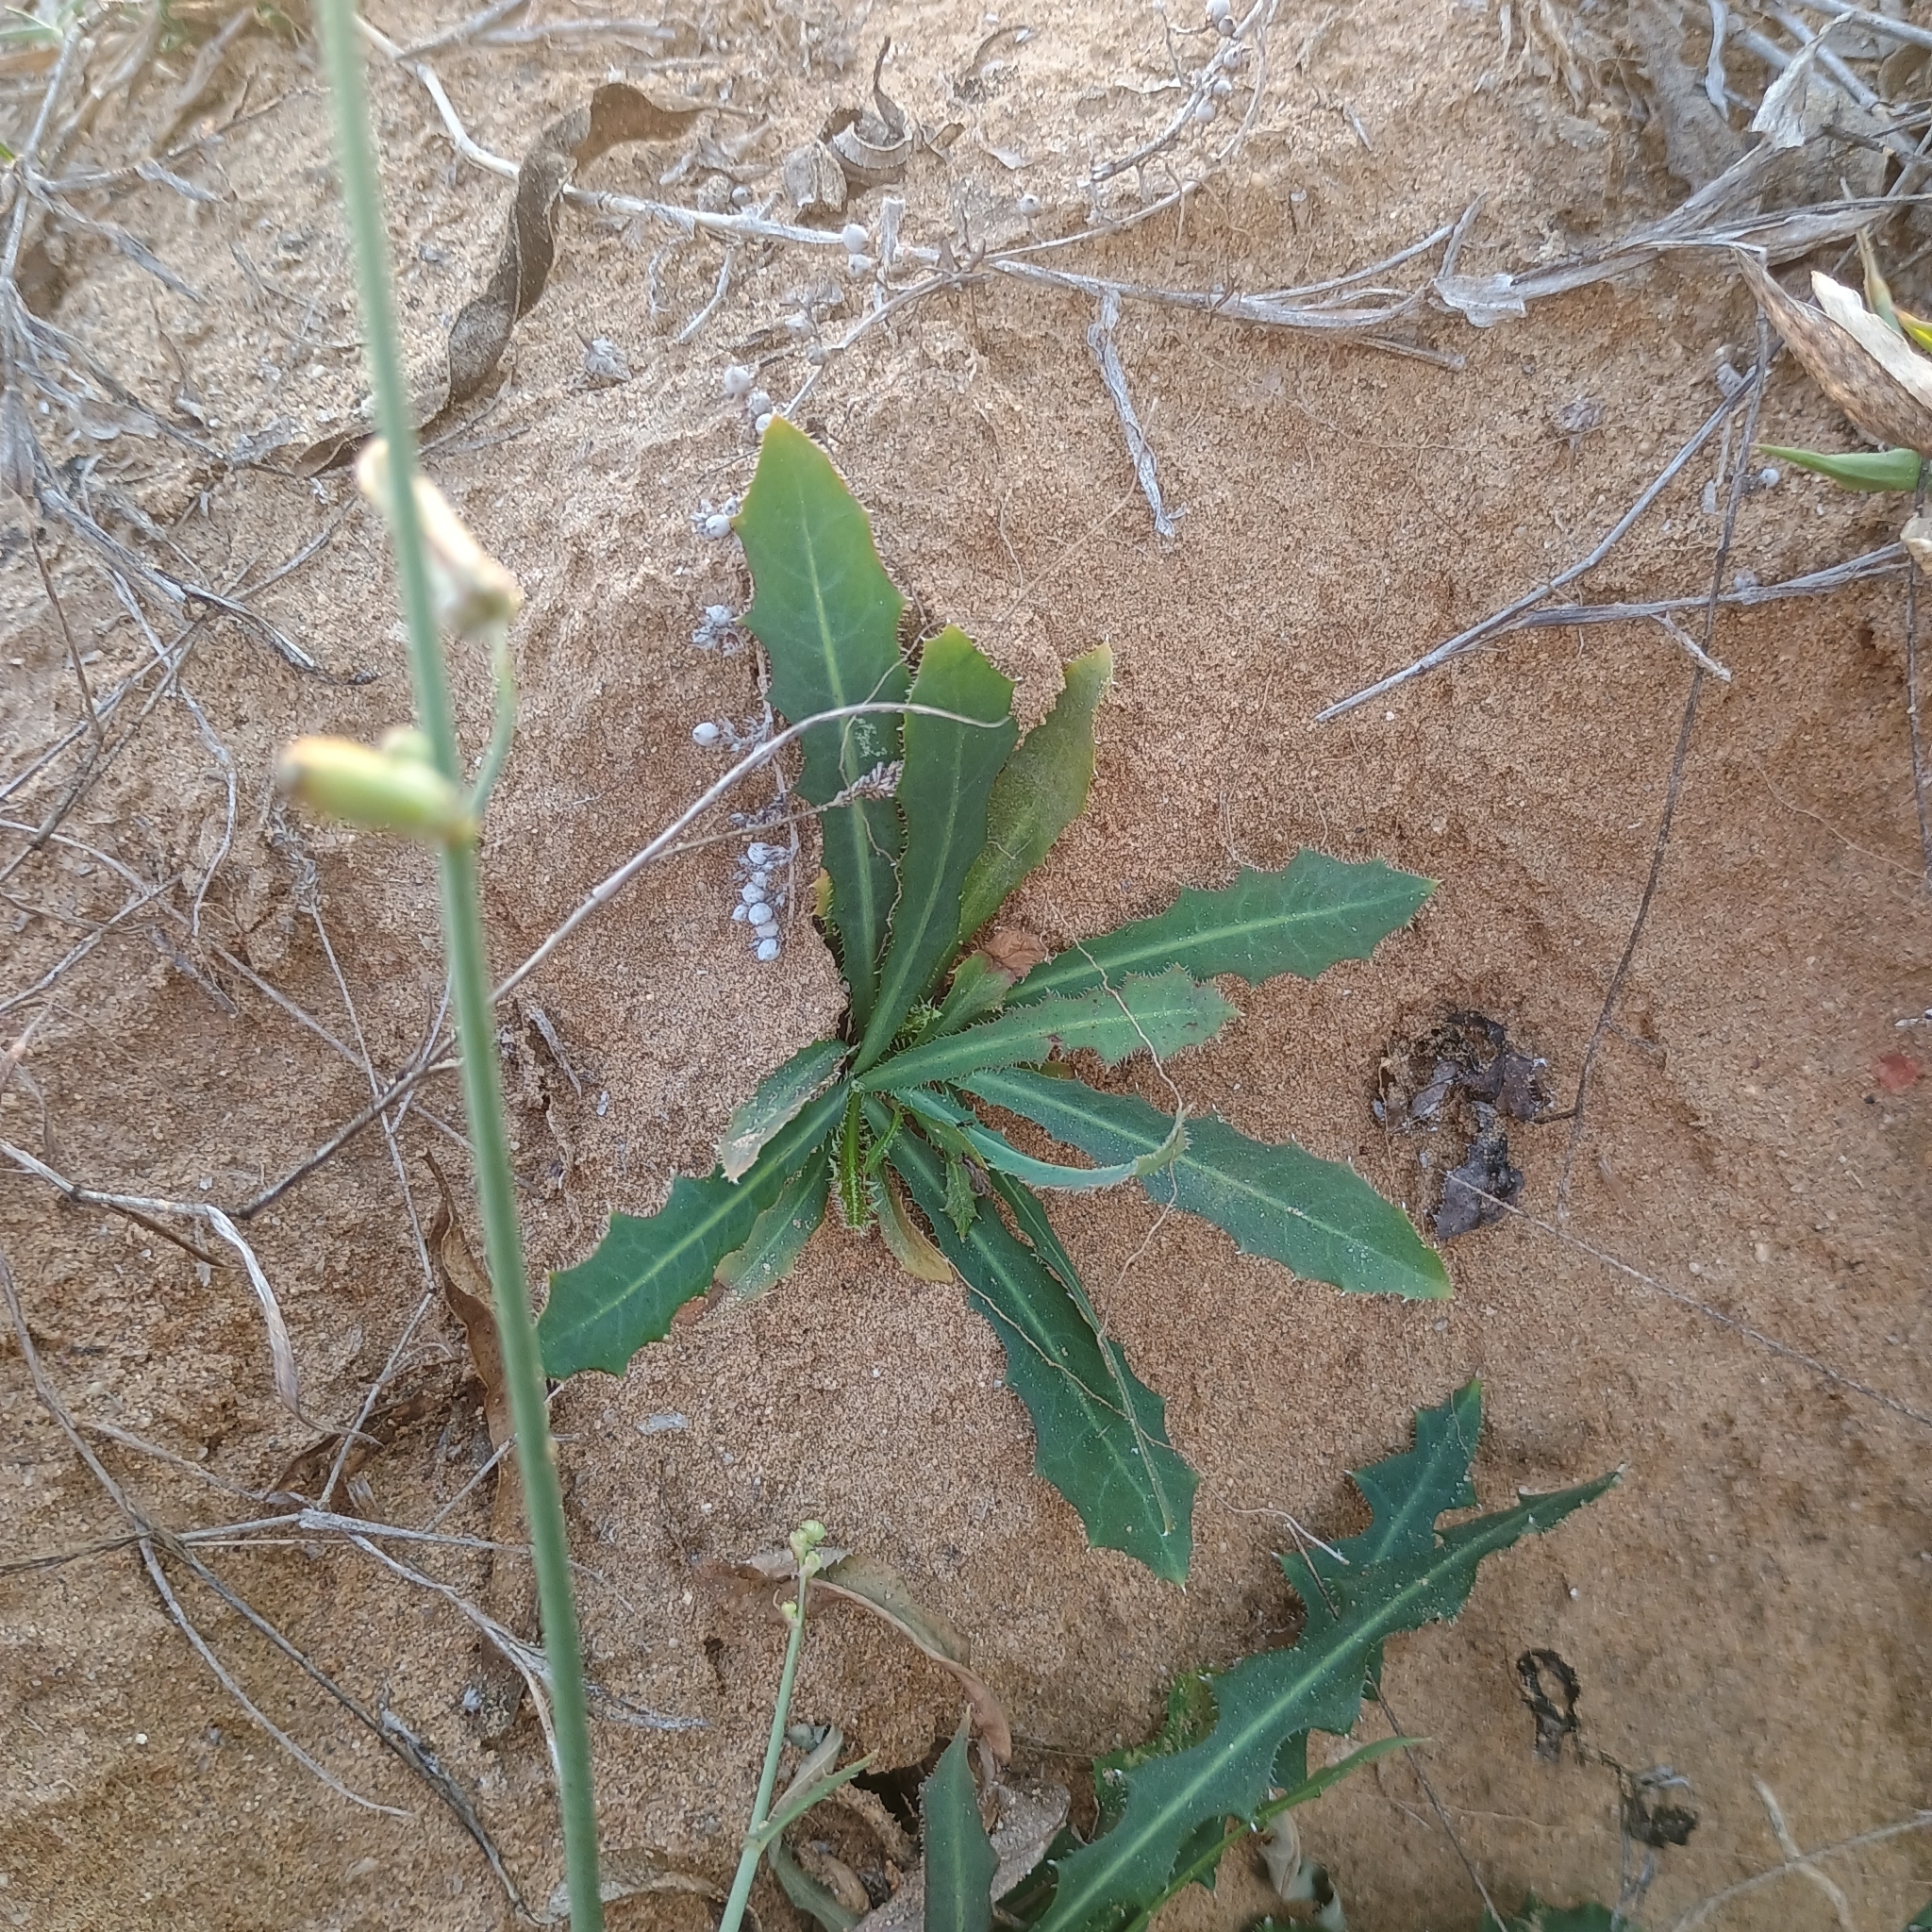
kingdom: Plantae
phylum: Tracheophyta
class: Magnoliopsida
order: Asterales
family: Asteraceae
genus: Launaea
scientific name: Launaea procumbens
